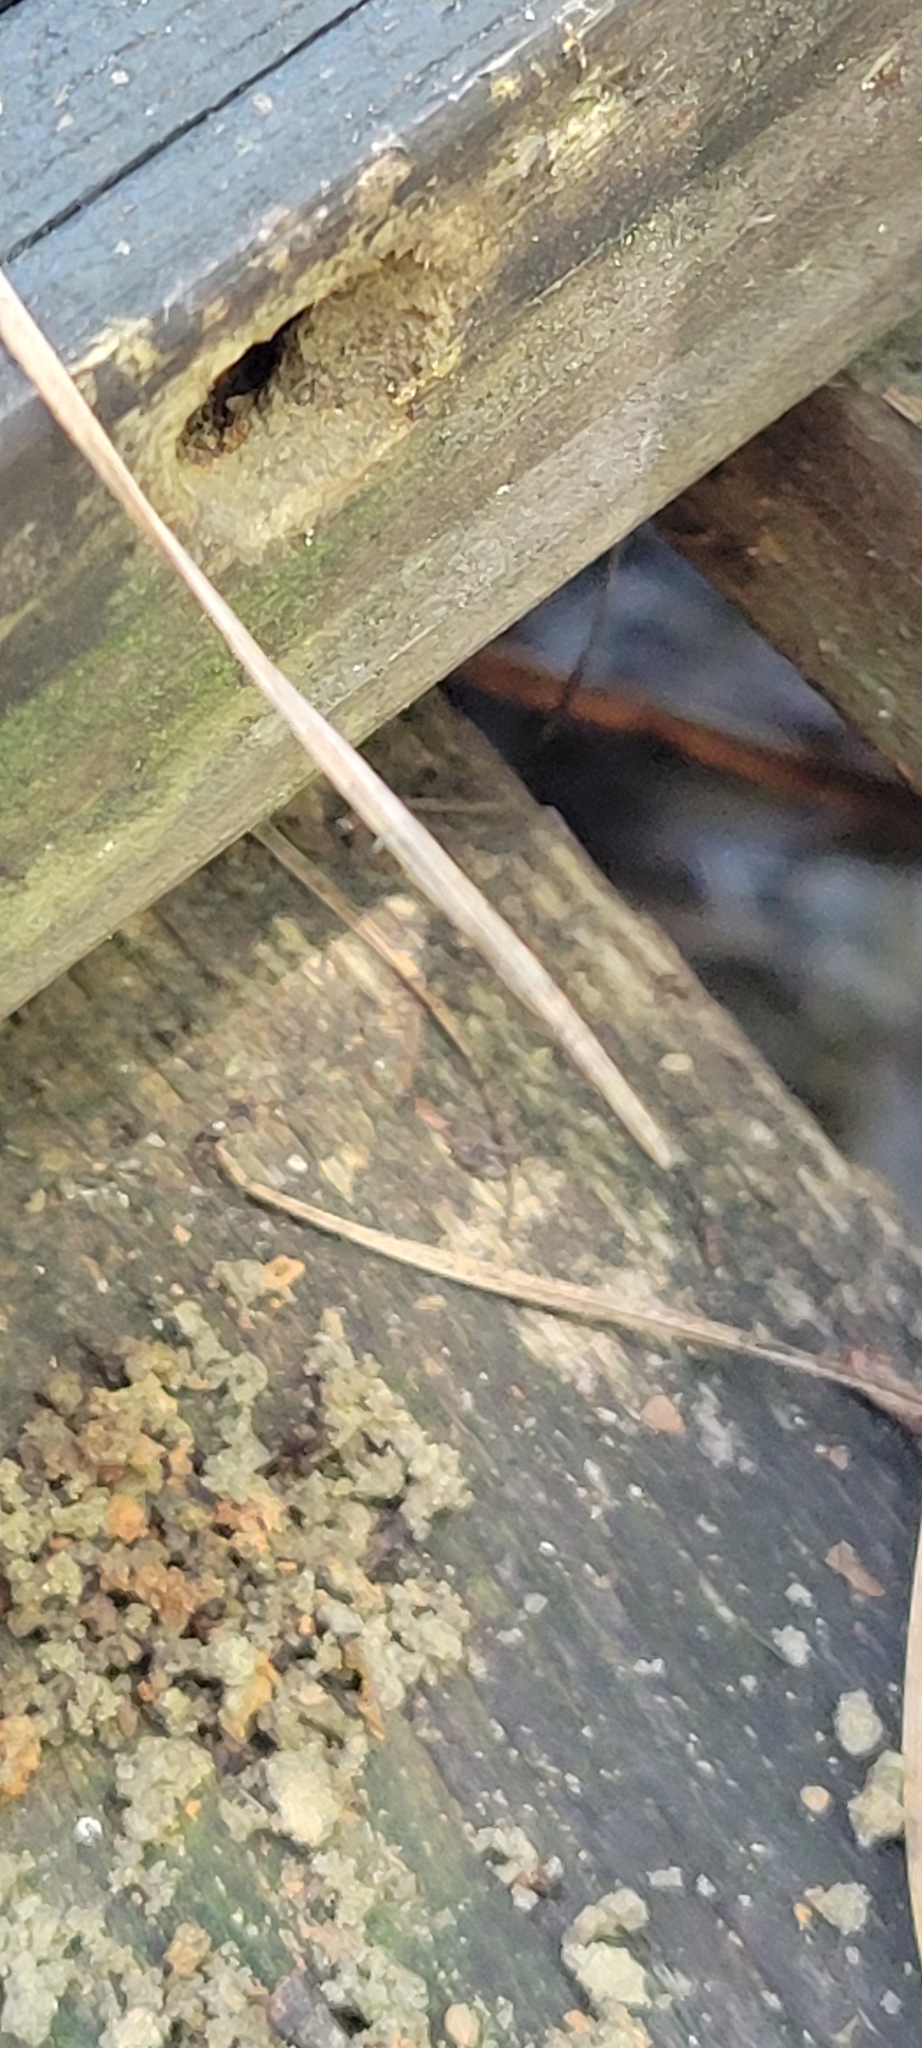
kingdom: Animalia
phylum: Arthropoda
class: Insecta
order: Hymenoptera
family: Eumenidae
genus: Monobia
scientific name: Monobia quadridens
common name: Four-toothed mason wasp
